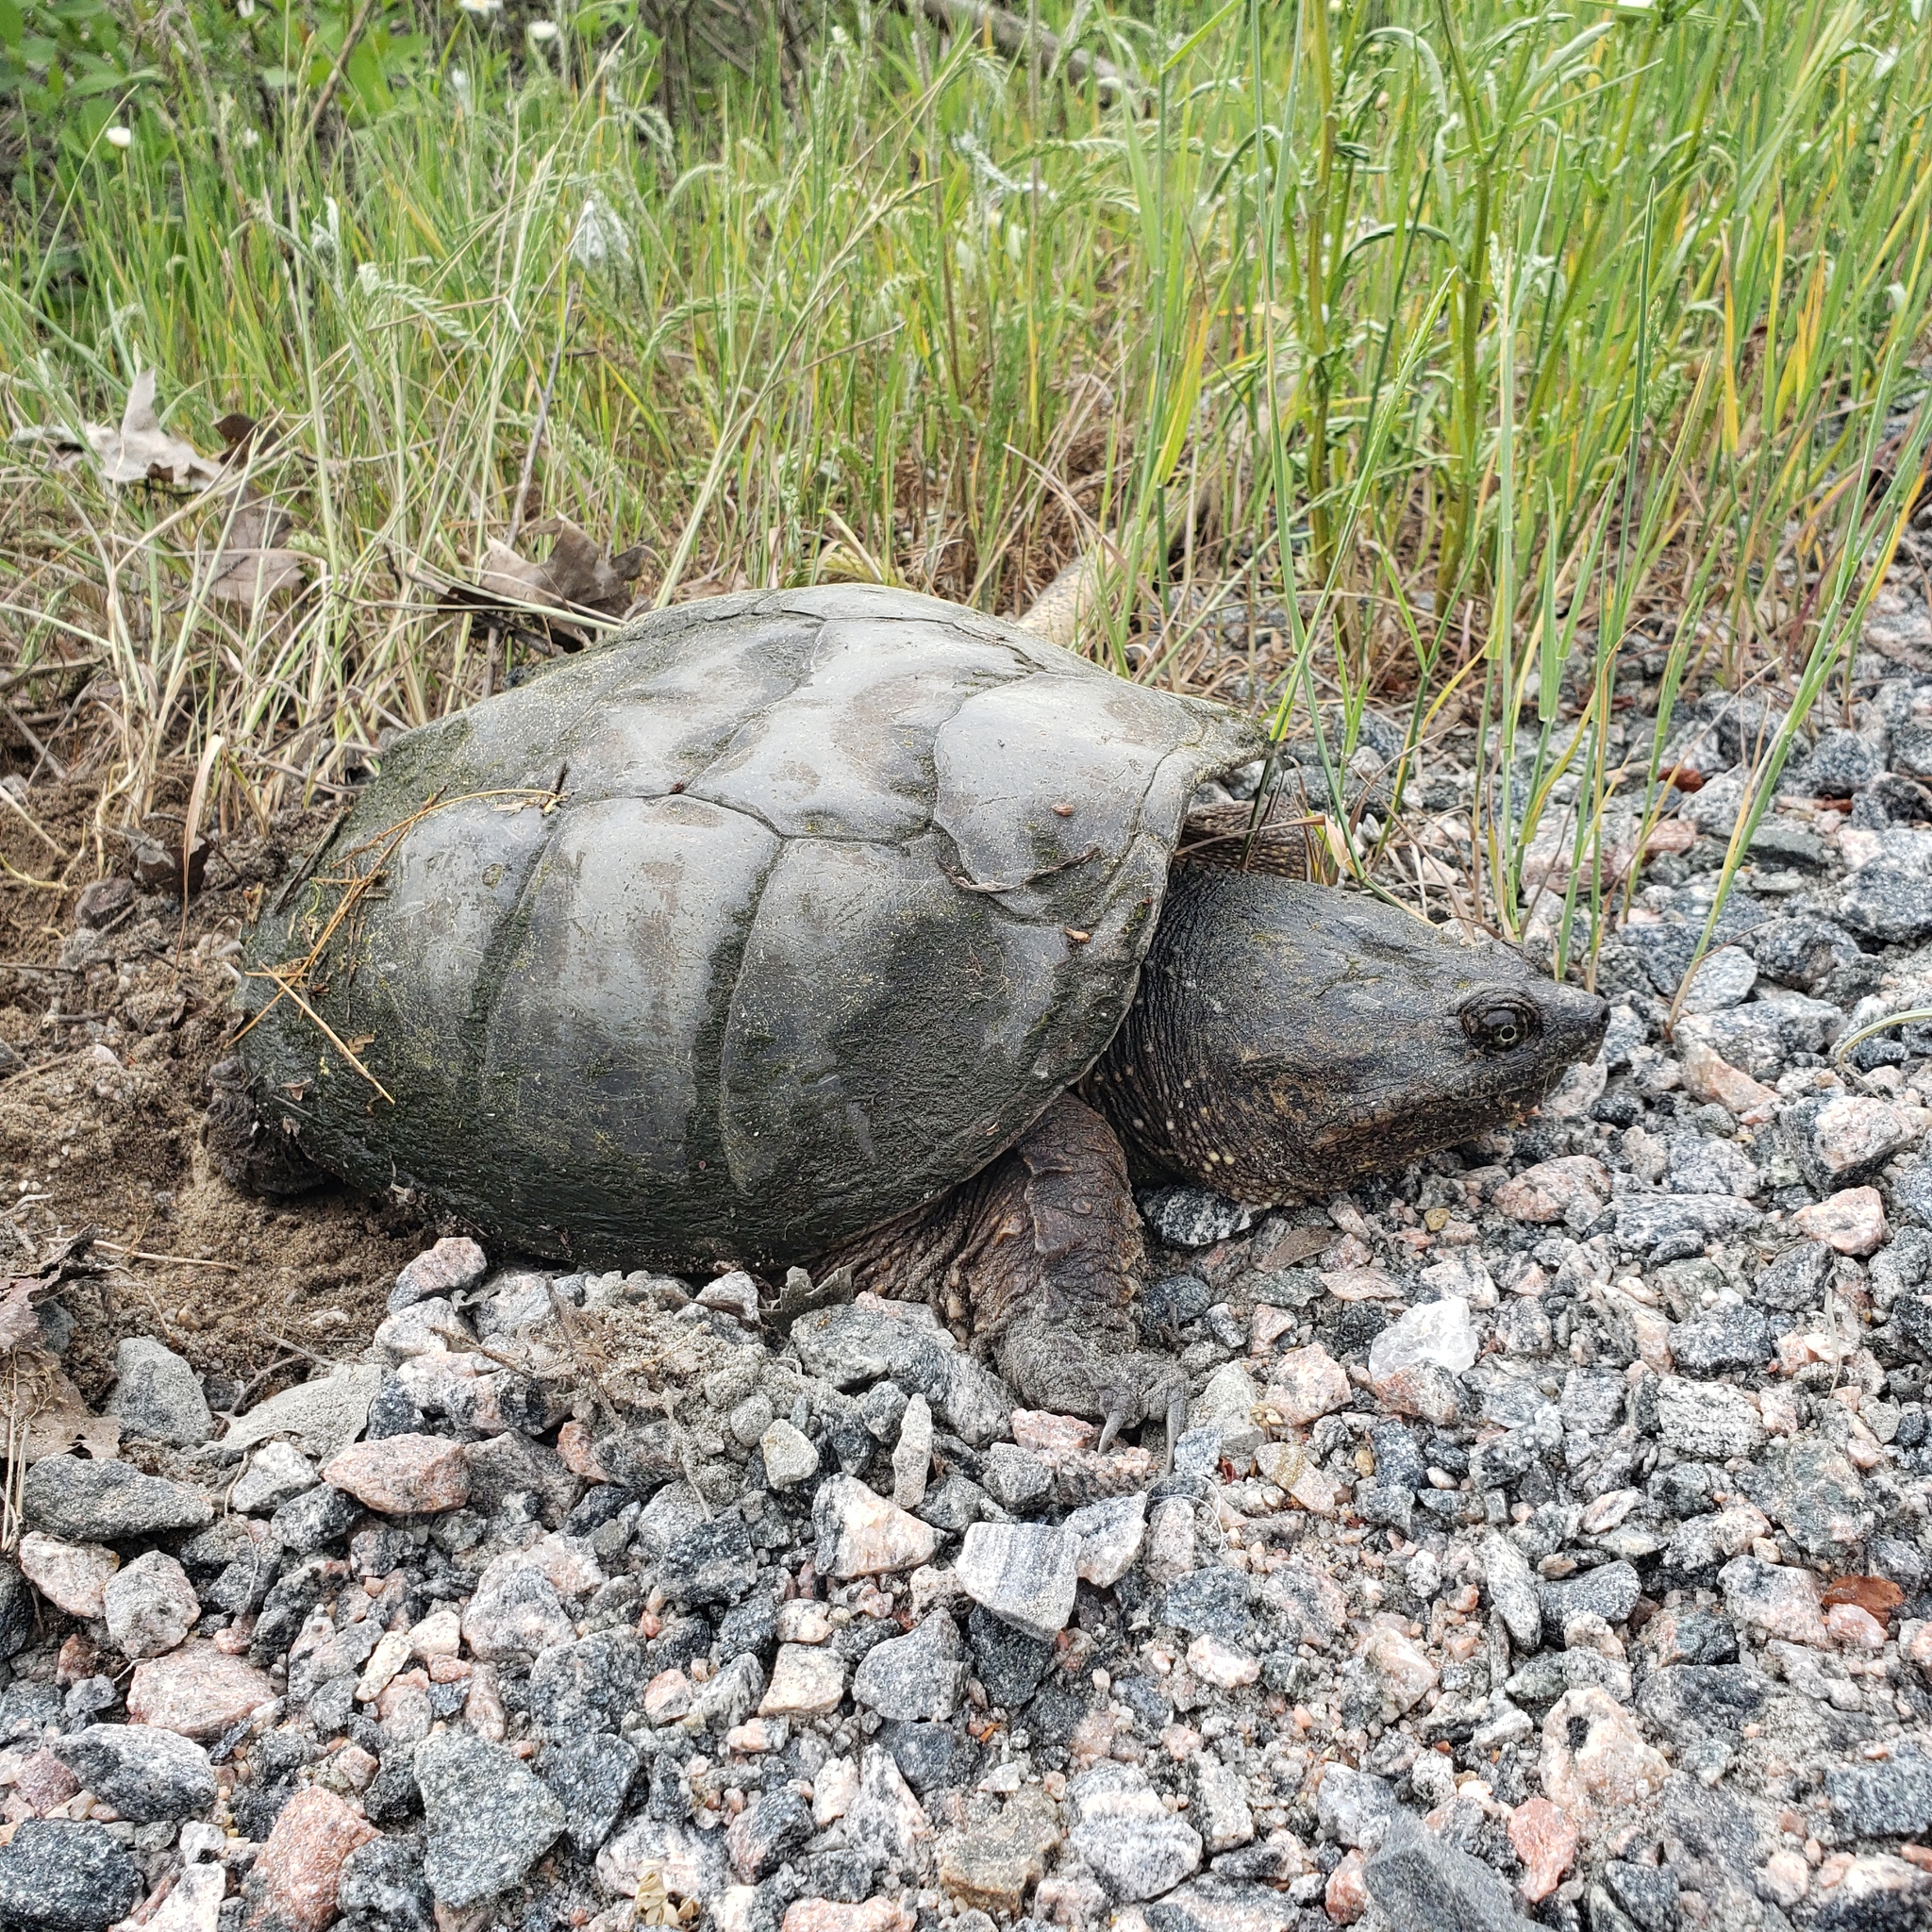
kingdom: Animalia
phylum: Chordata
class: Testudines
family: Chelydridae
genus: Chelydra
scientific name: Chelydra serpentina
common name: Common snapping turtle
